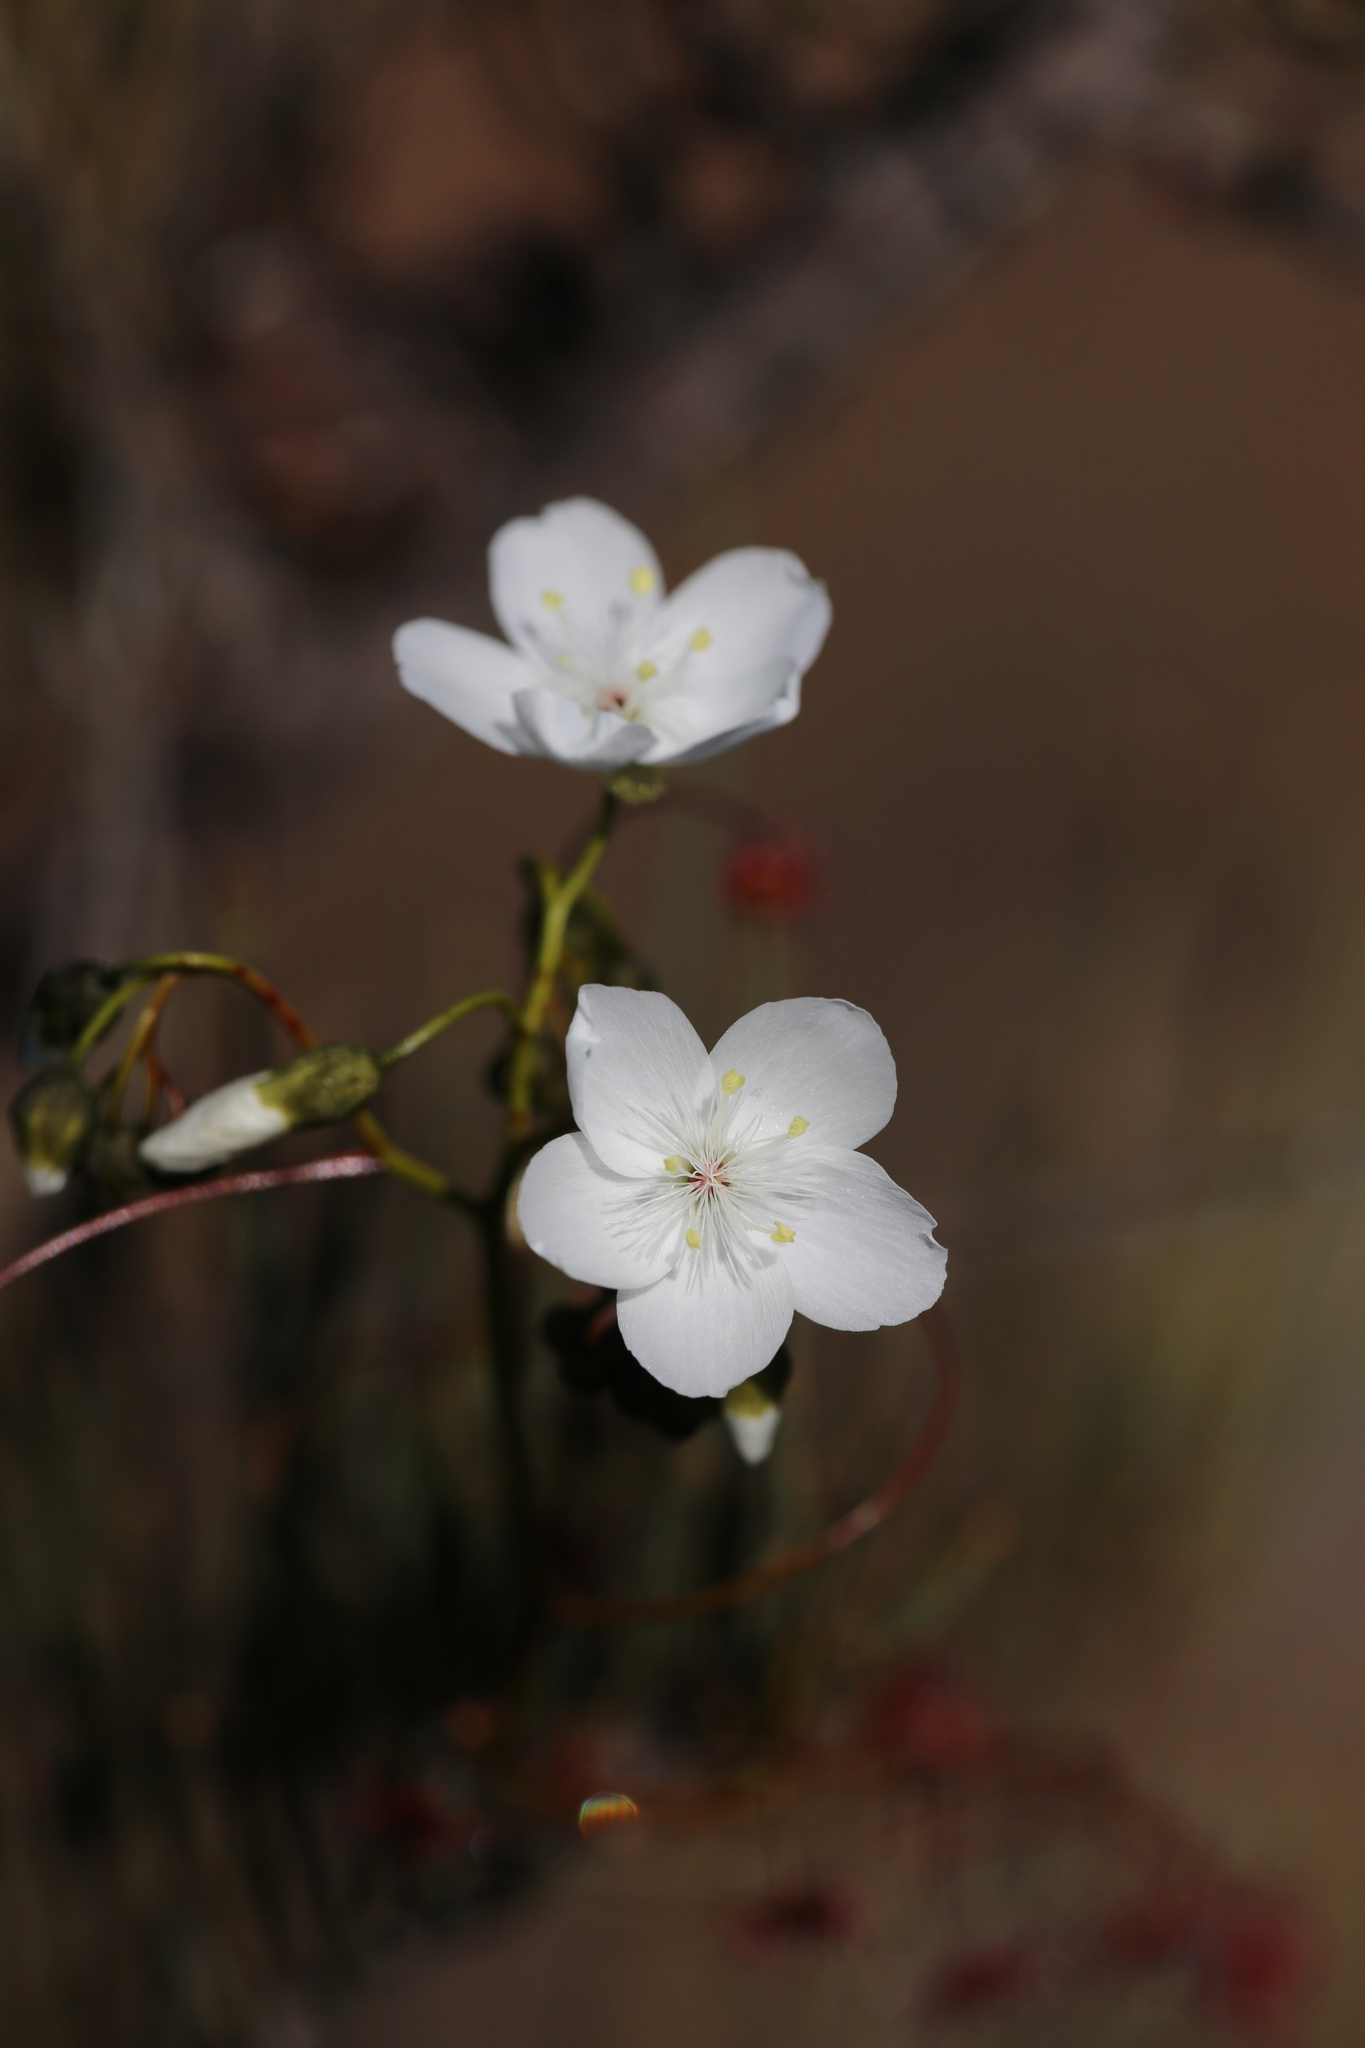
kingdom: Plantae
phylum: Tracheophyta
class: Magnoliopsida
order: Caryophyllales
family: Droseraceae
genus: Drosera
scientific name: Drosera pallida
